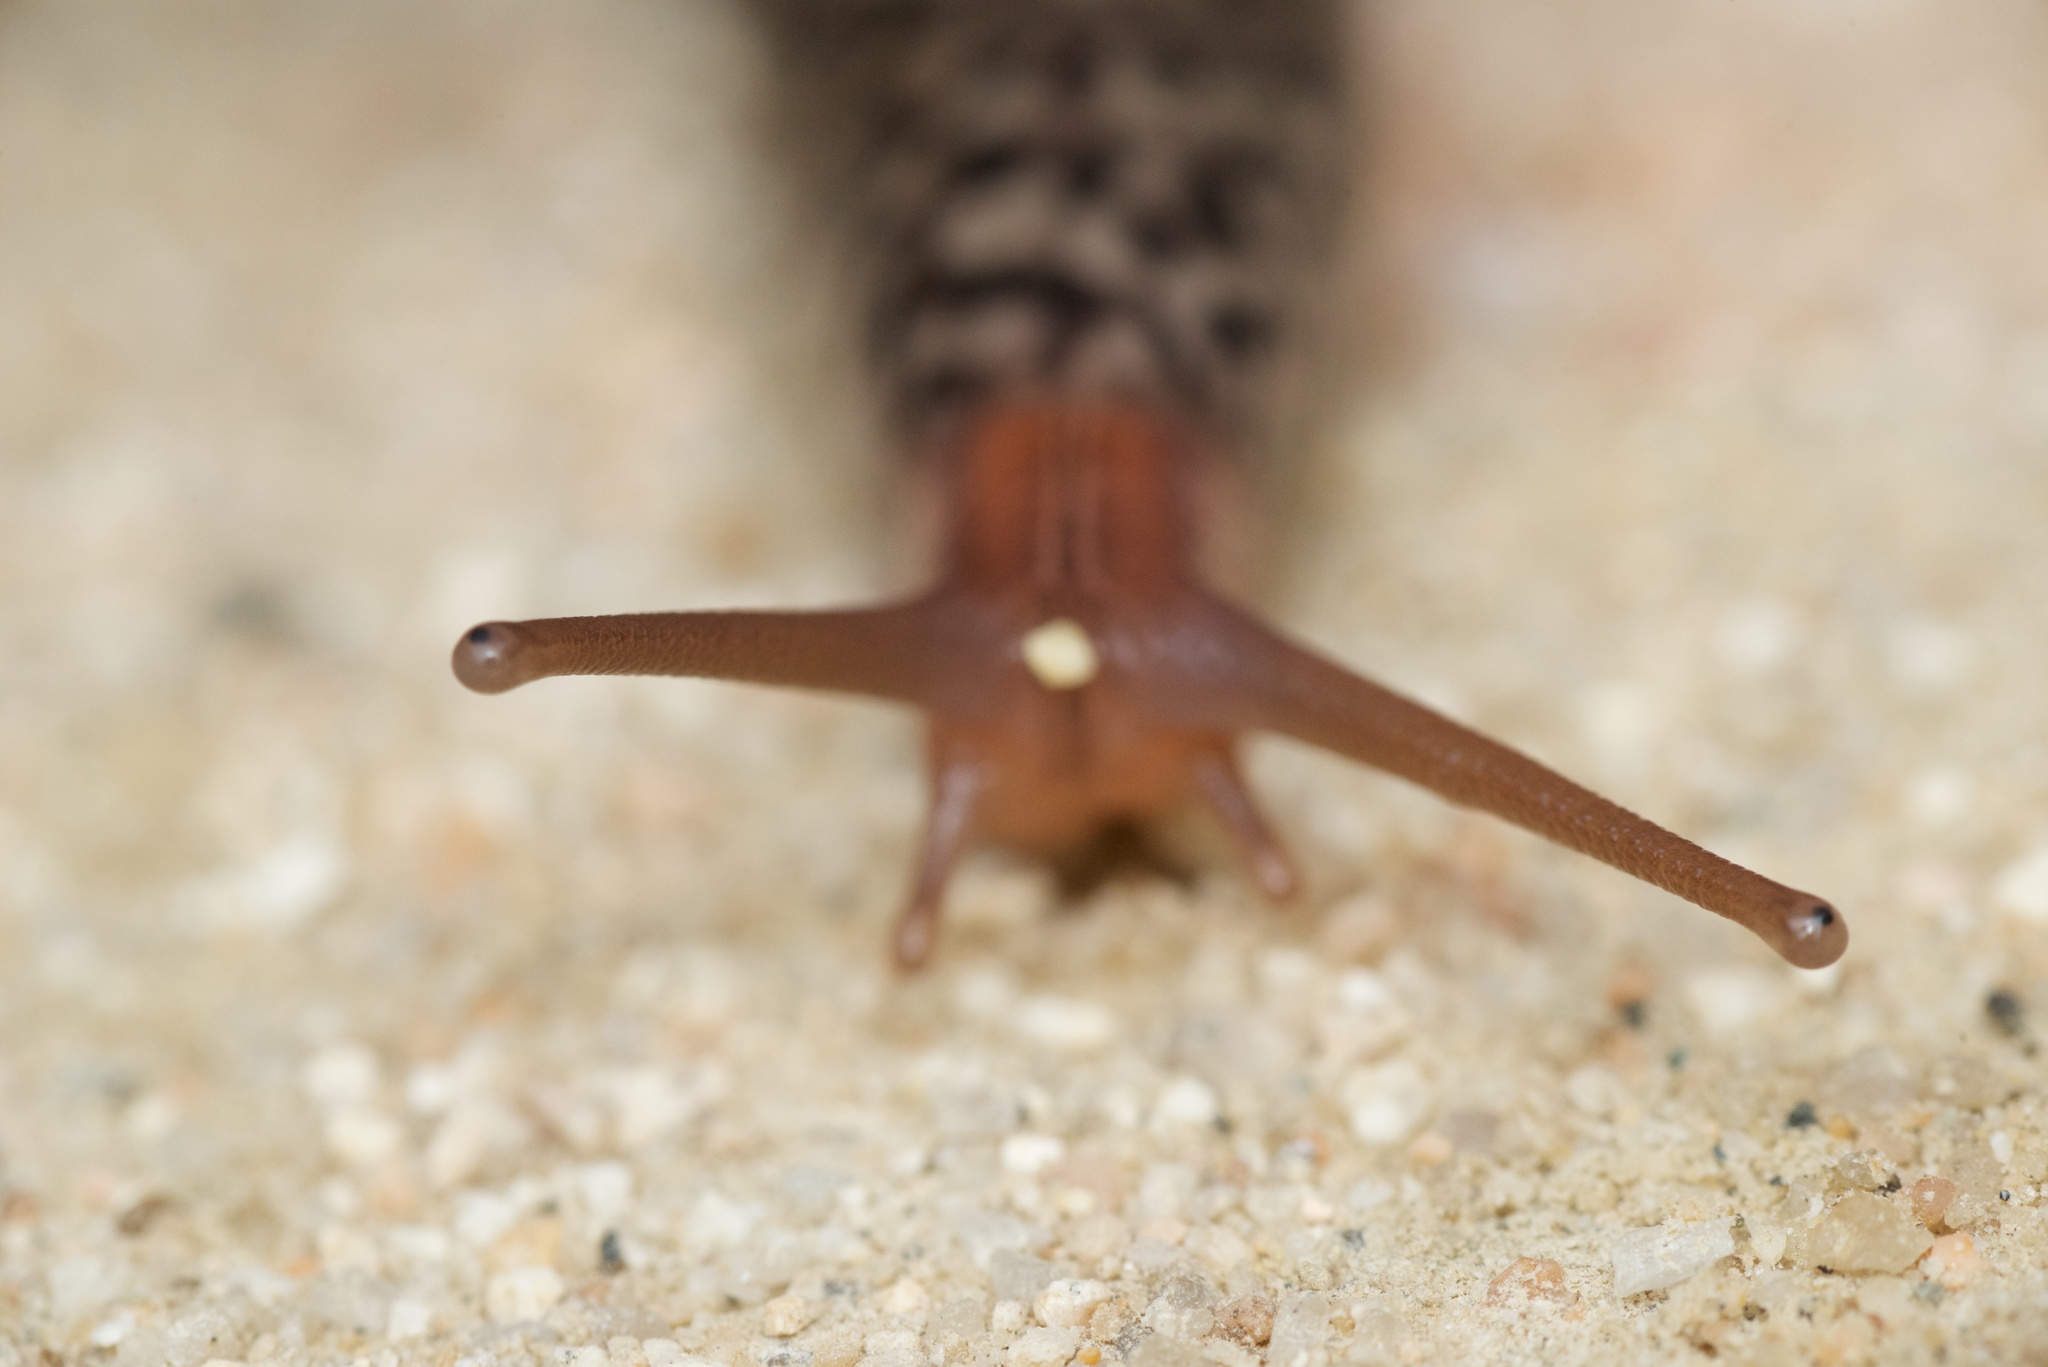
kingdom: Animalia
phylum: Mollusca
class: Gastropoda
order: Stylommatophora
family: Limacidae
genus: Limax
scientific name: Limax maximus
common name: Great grey slug
